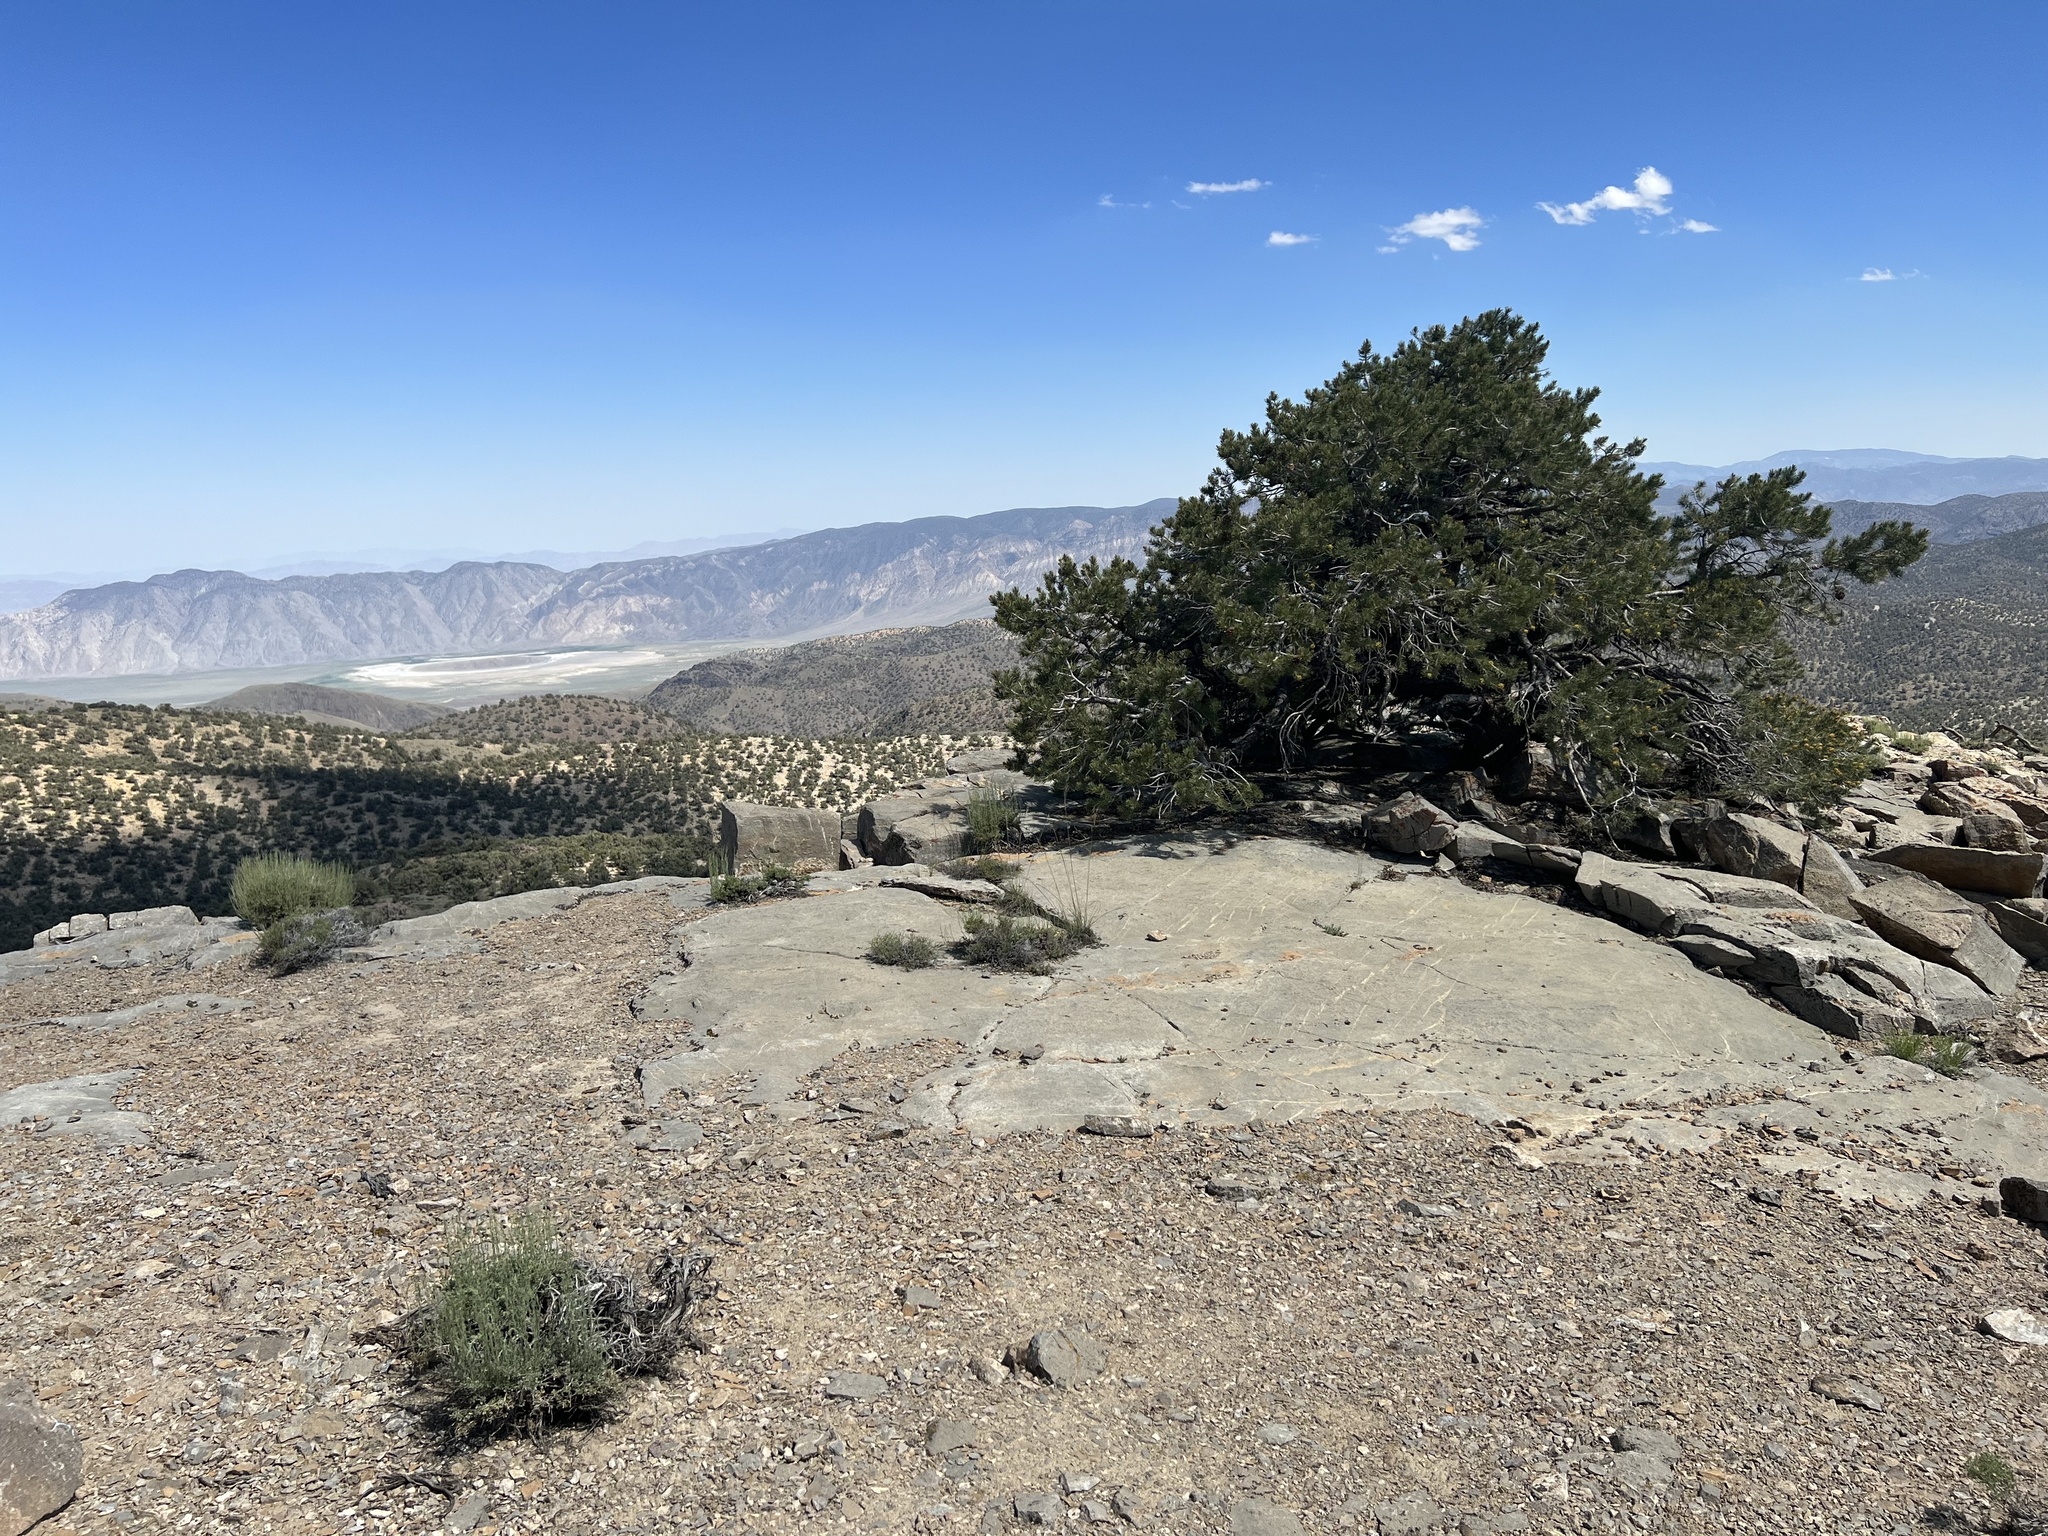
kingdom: Plantae
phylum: Tracheophyta
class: Pinopsida
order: Pinales
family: Pinaceae
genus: Pinus
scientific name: Pinus monophylla
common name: One-leaved nut pine
